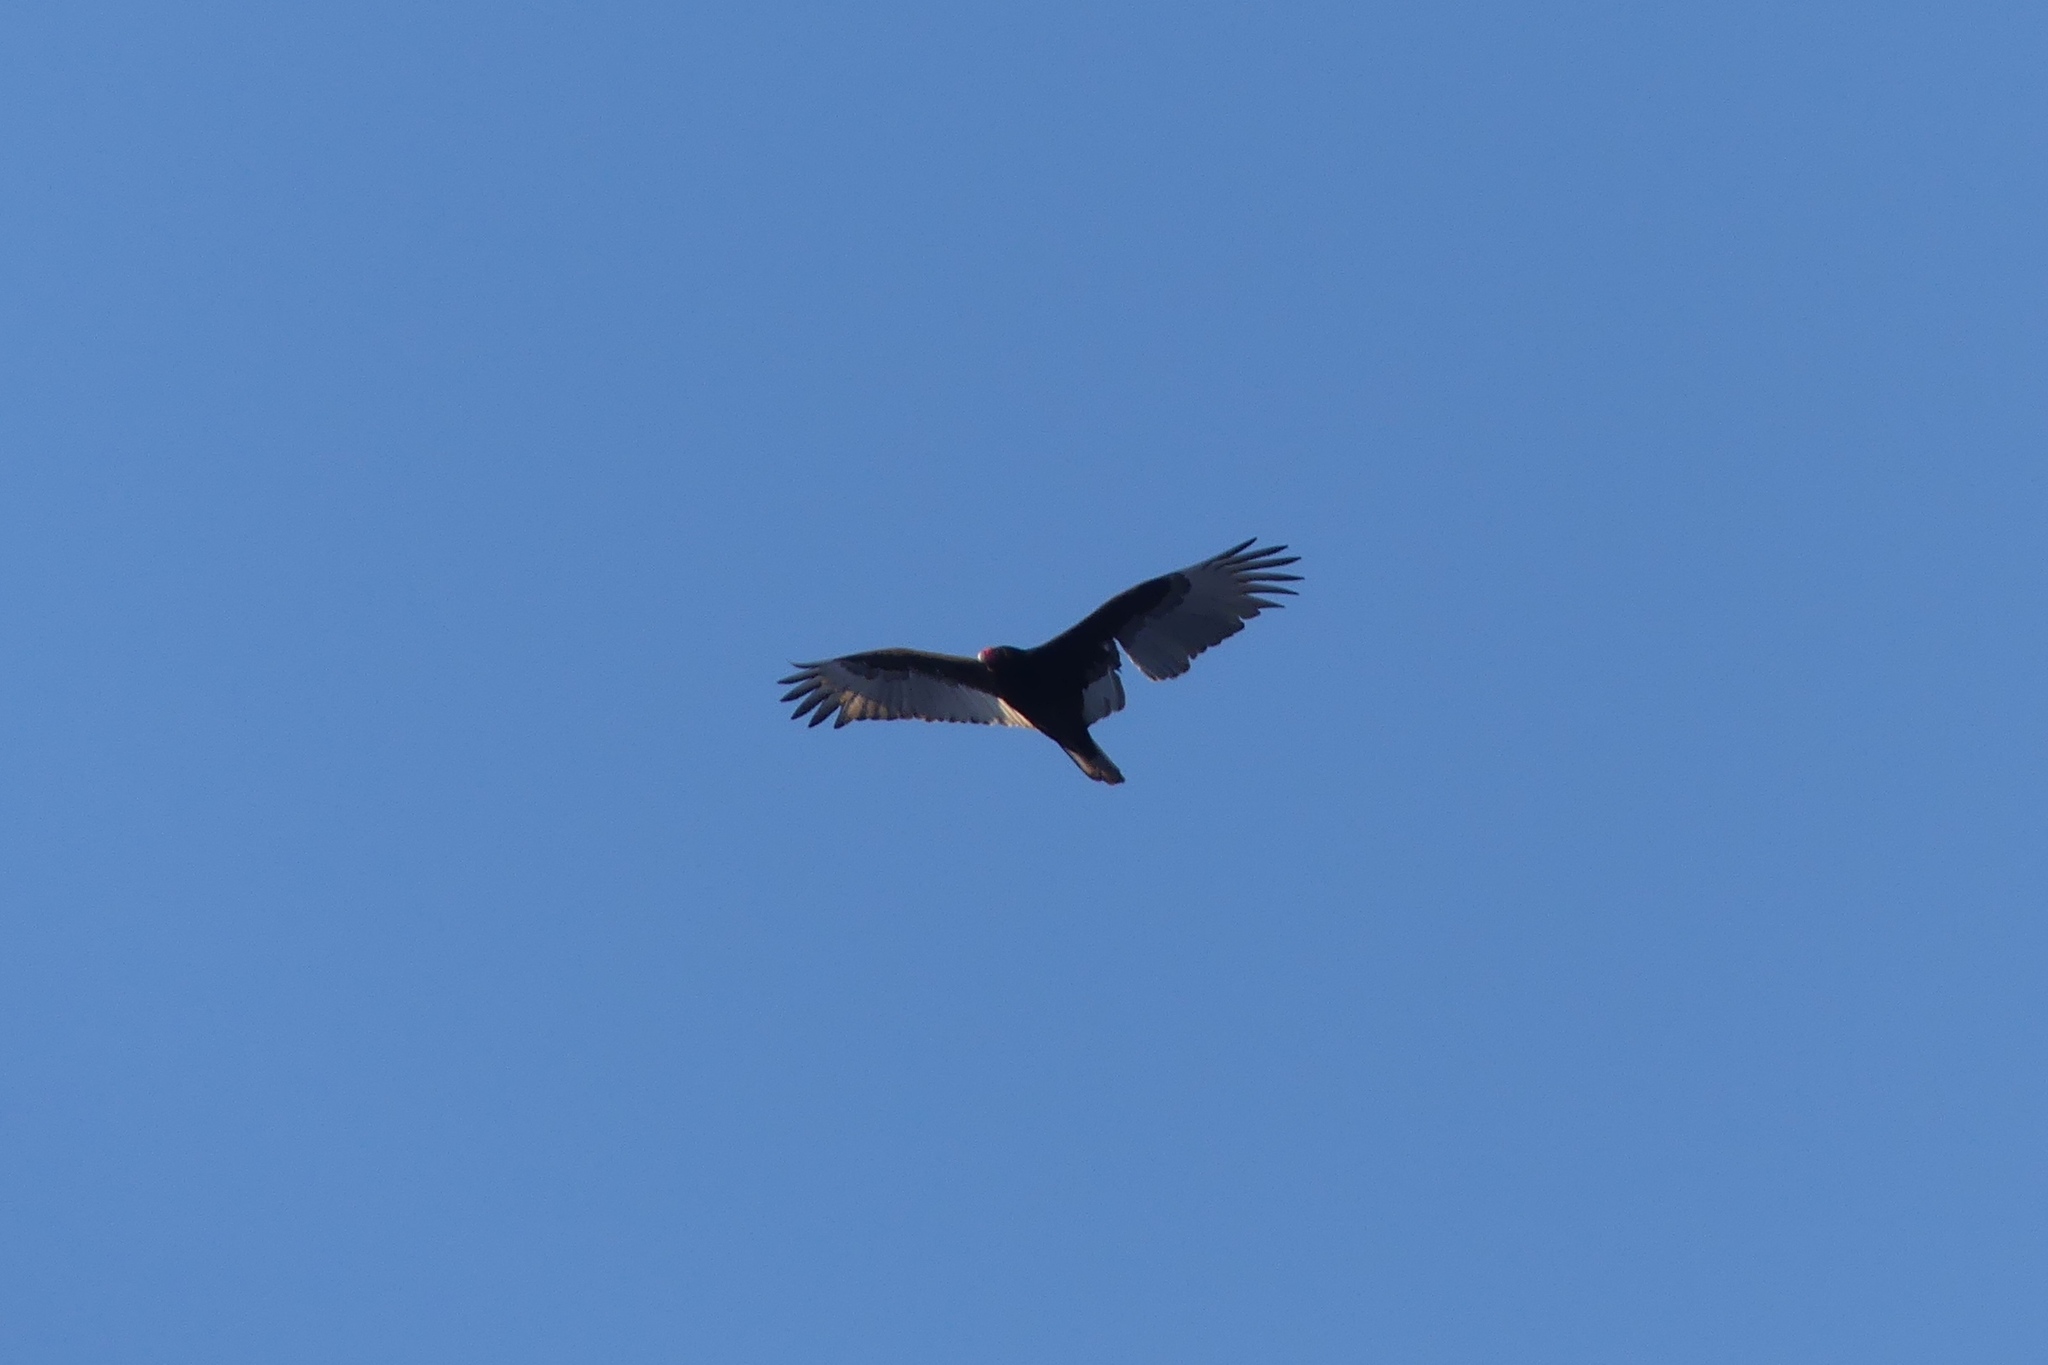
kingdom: Animalia
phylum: Chordata
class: Aves
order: Accipitriformes
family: Cathartidae
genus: Cathartes
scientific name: Cathartes aura
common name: Turkey vulture
